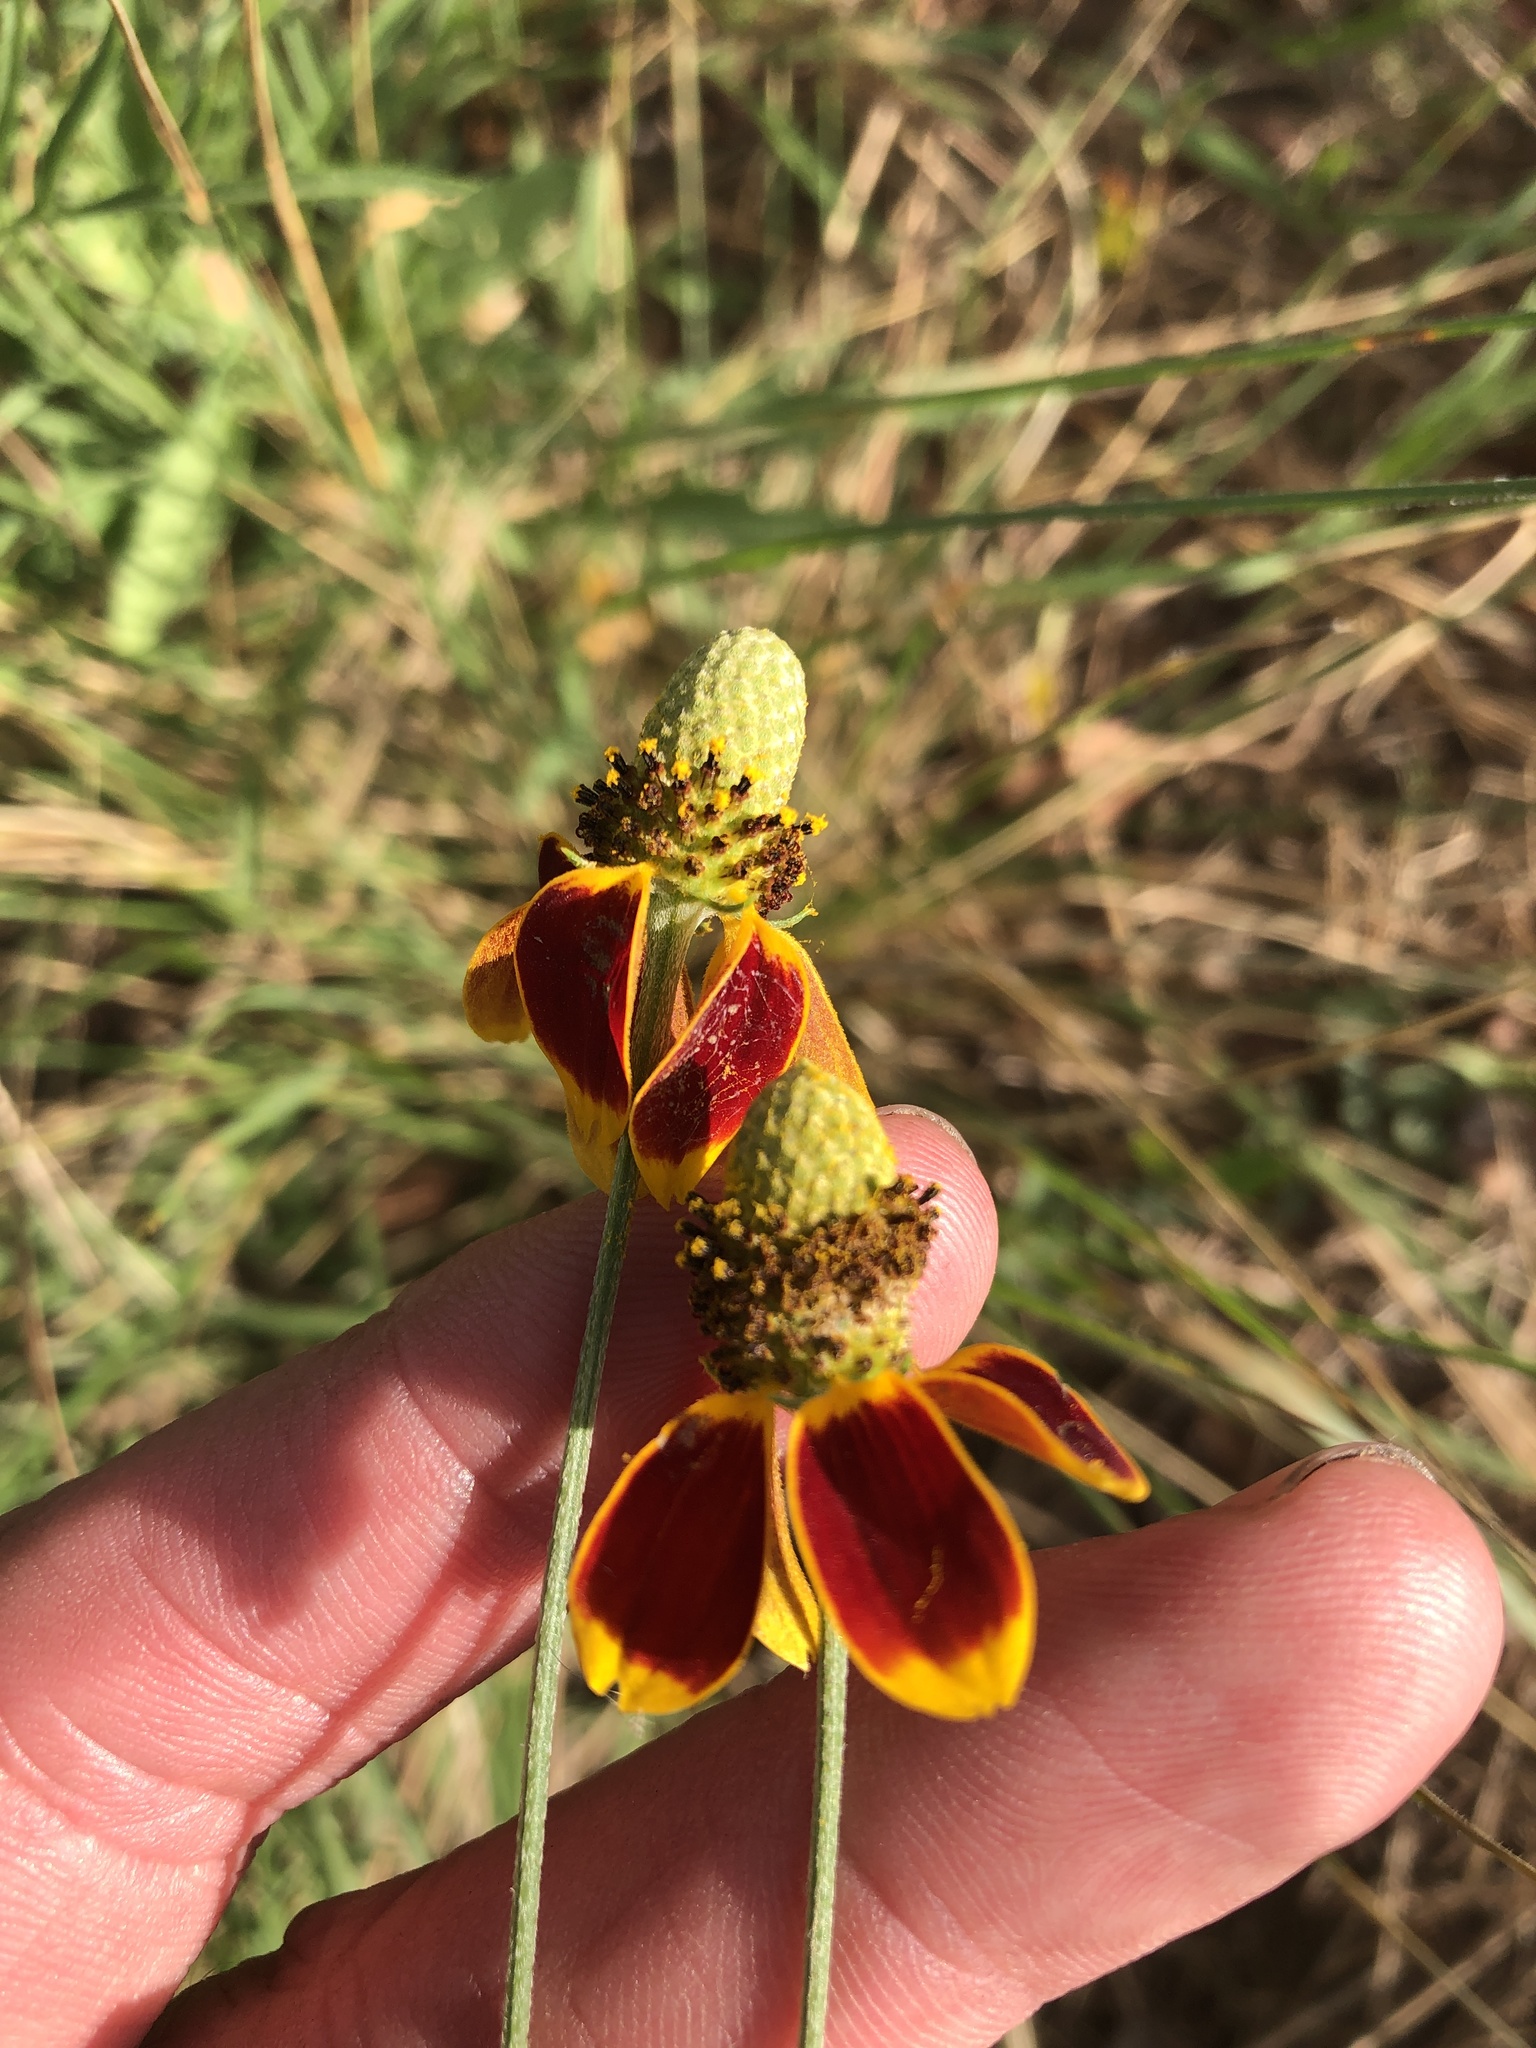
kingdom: Plantae
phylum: Tracheophyta
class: Magnoliopsida
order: Asterales
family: Asteraceae
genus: Ratibida
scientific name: Ratibida columnifera
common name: Prairie coneflower
